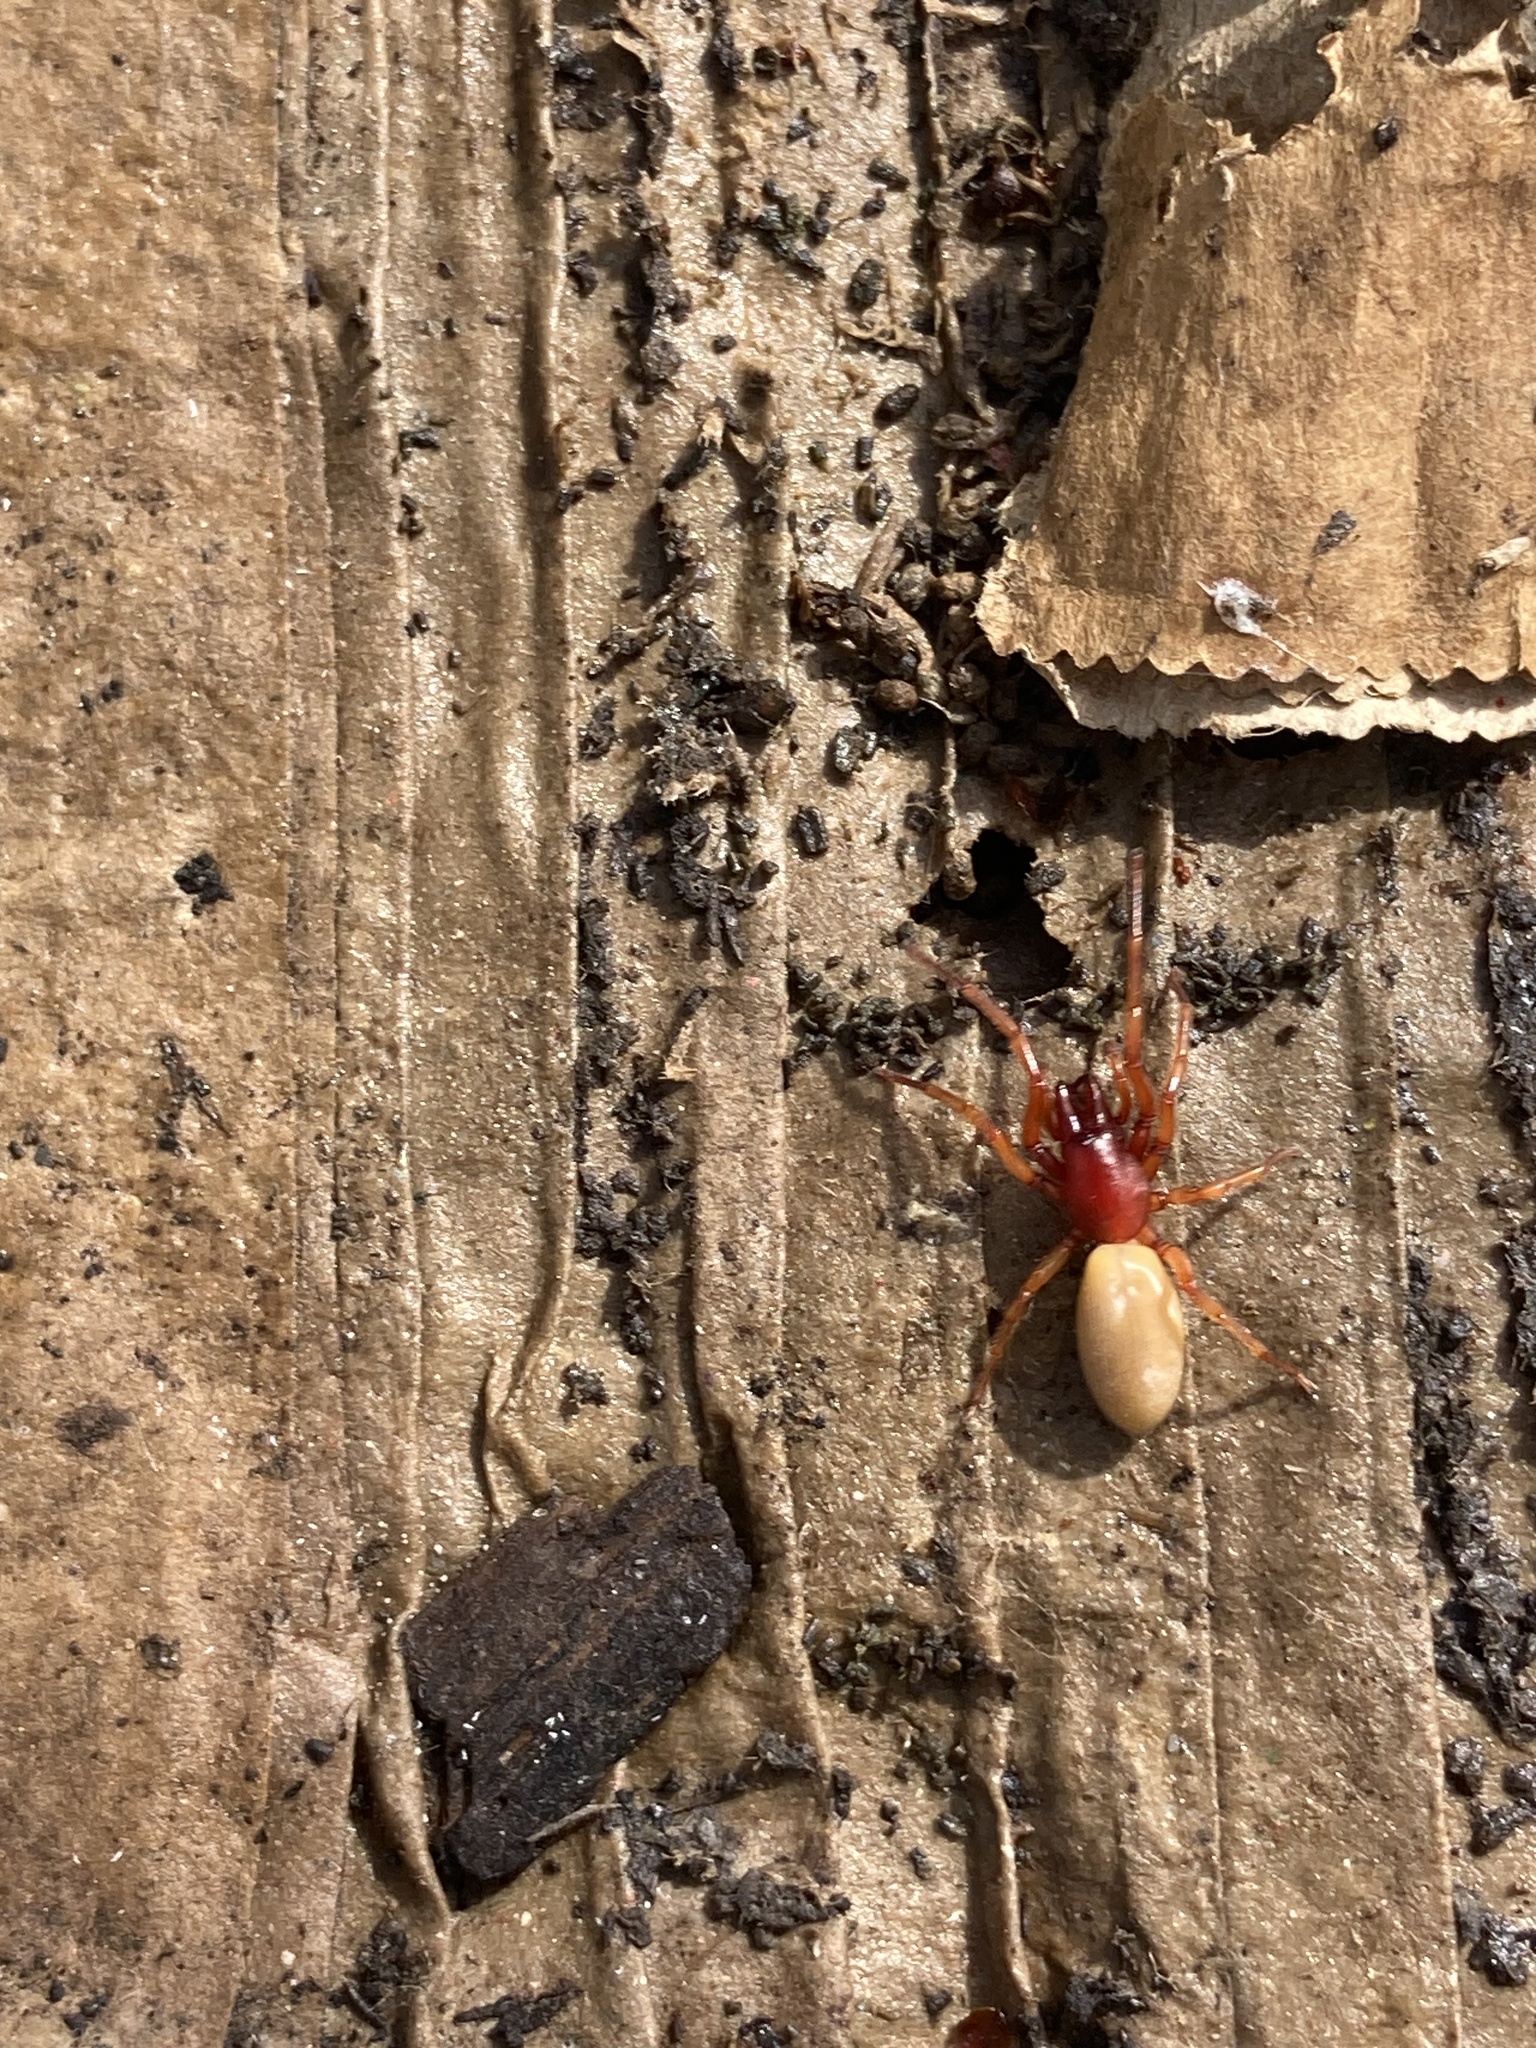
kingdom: Animalia
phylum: Arthropoda
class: Arachnida
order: Araneae
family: Dysderidae
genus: Dysdera
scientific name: Dysdera crocata
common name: Woodlouse spider
